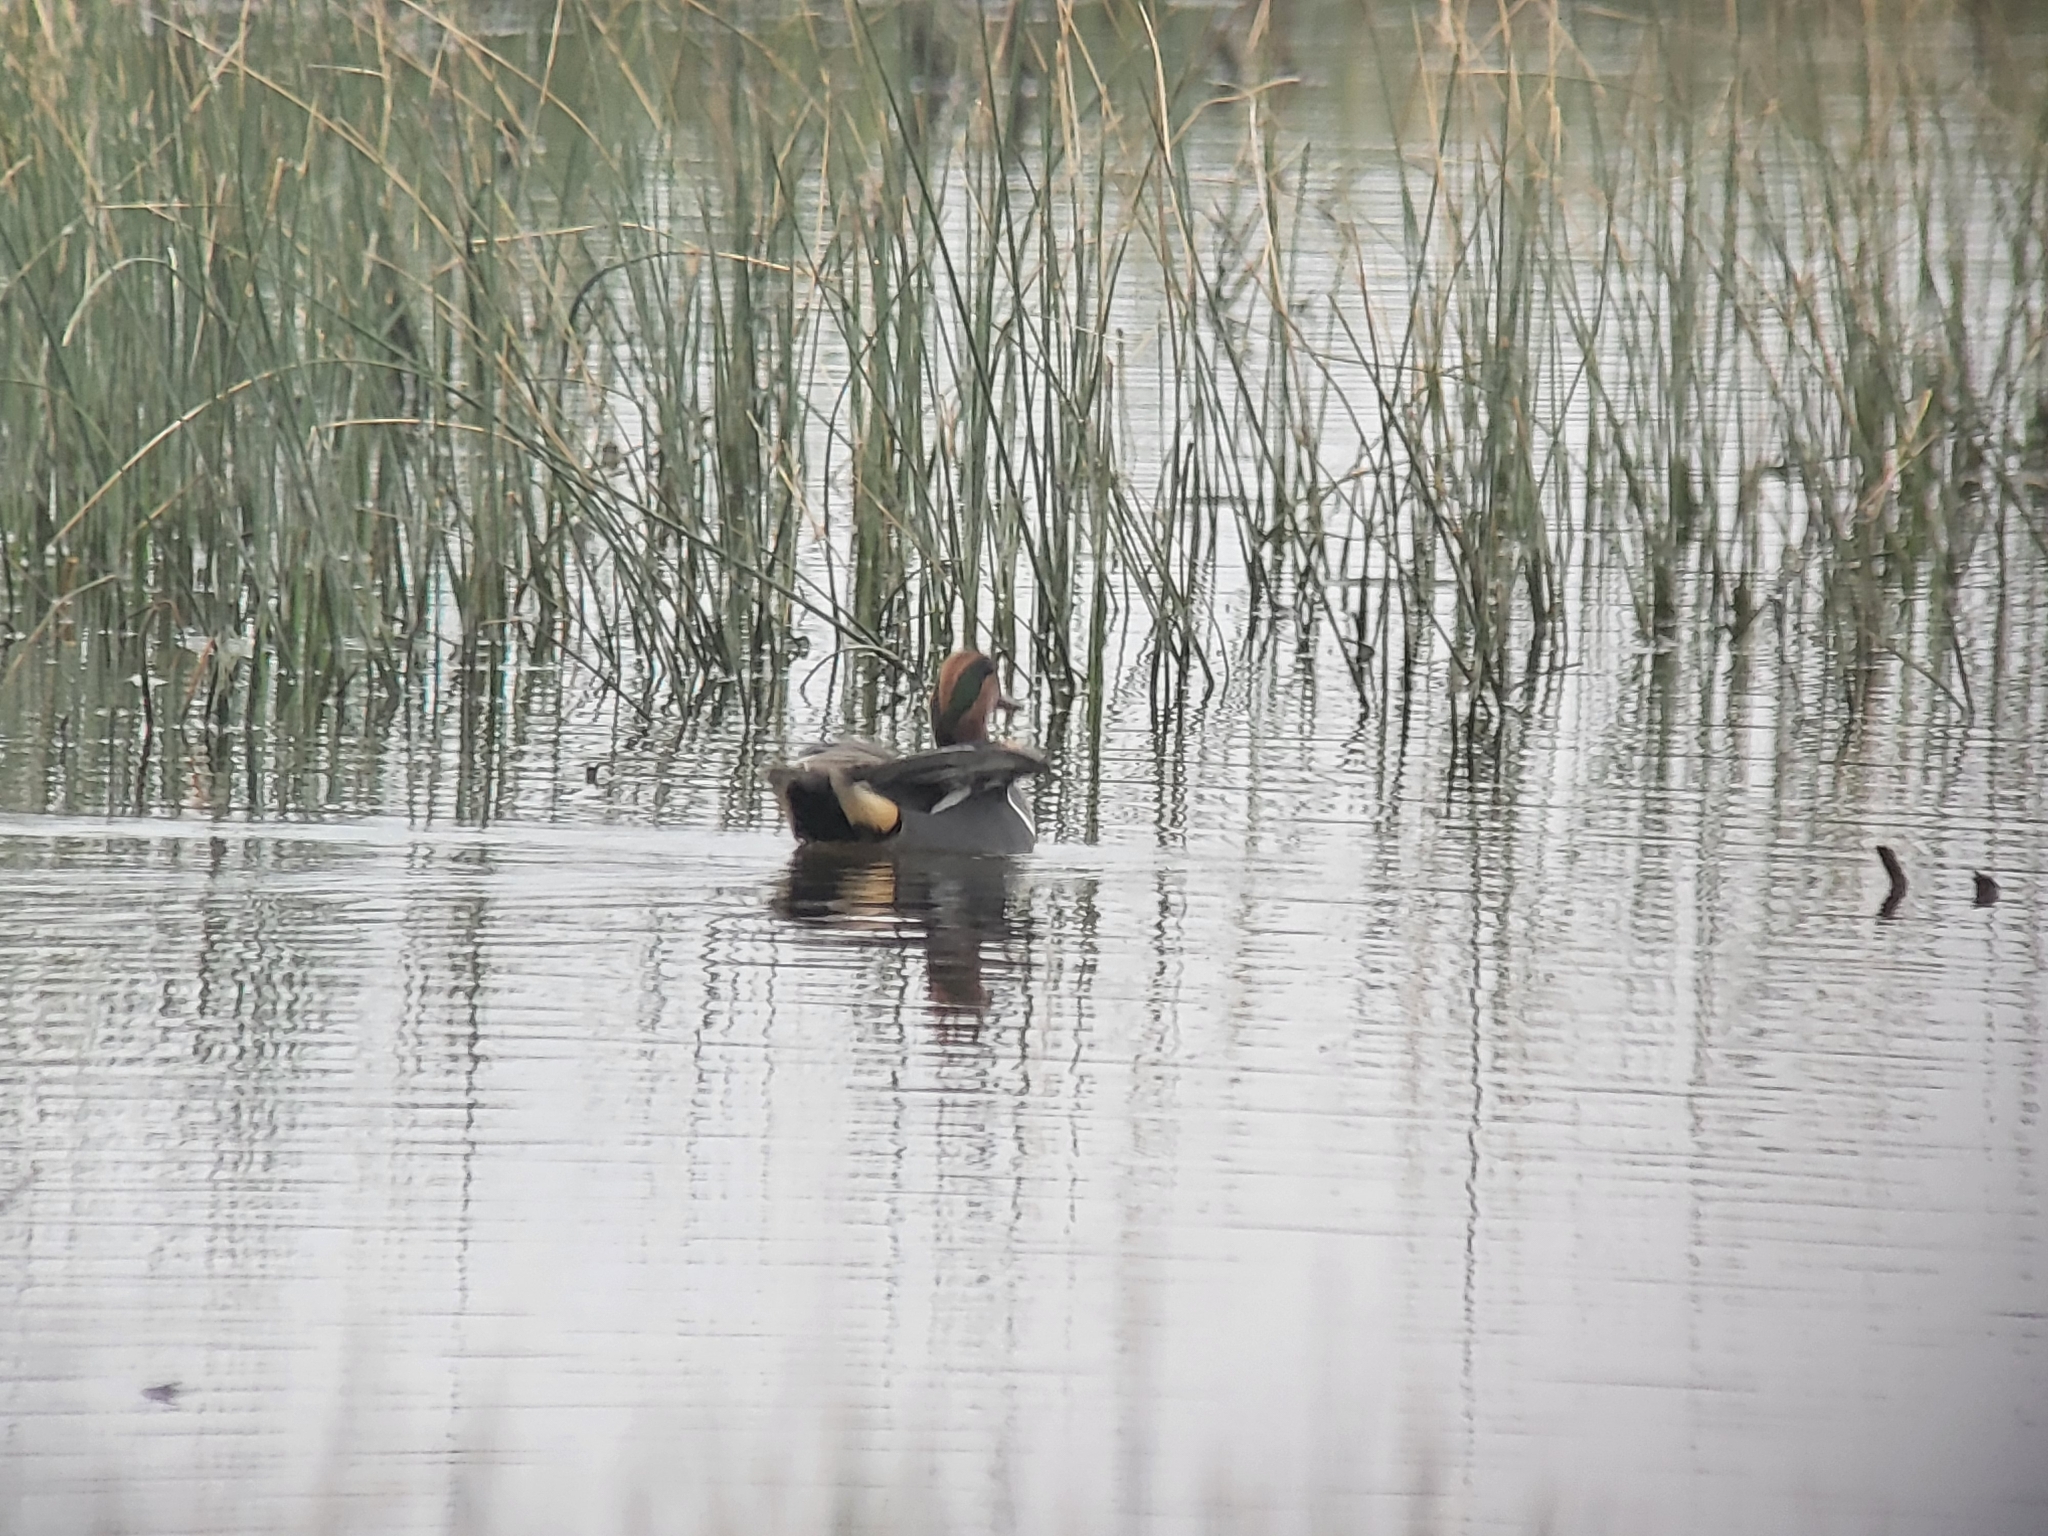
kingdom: Animalia
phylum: Chordata
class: Aves
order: Anseriformes
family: Anatidae
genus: Anas
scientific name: Anas crecca
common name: Eurasian teal
